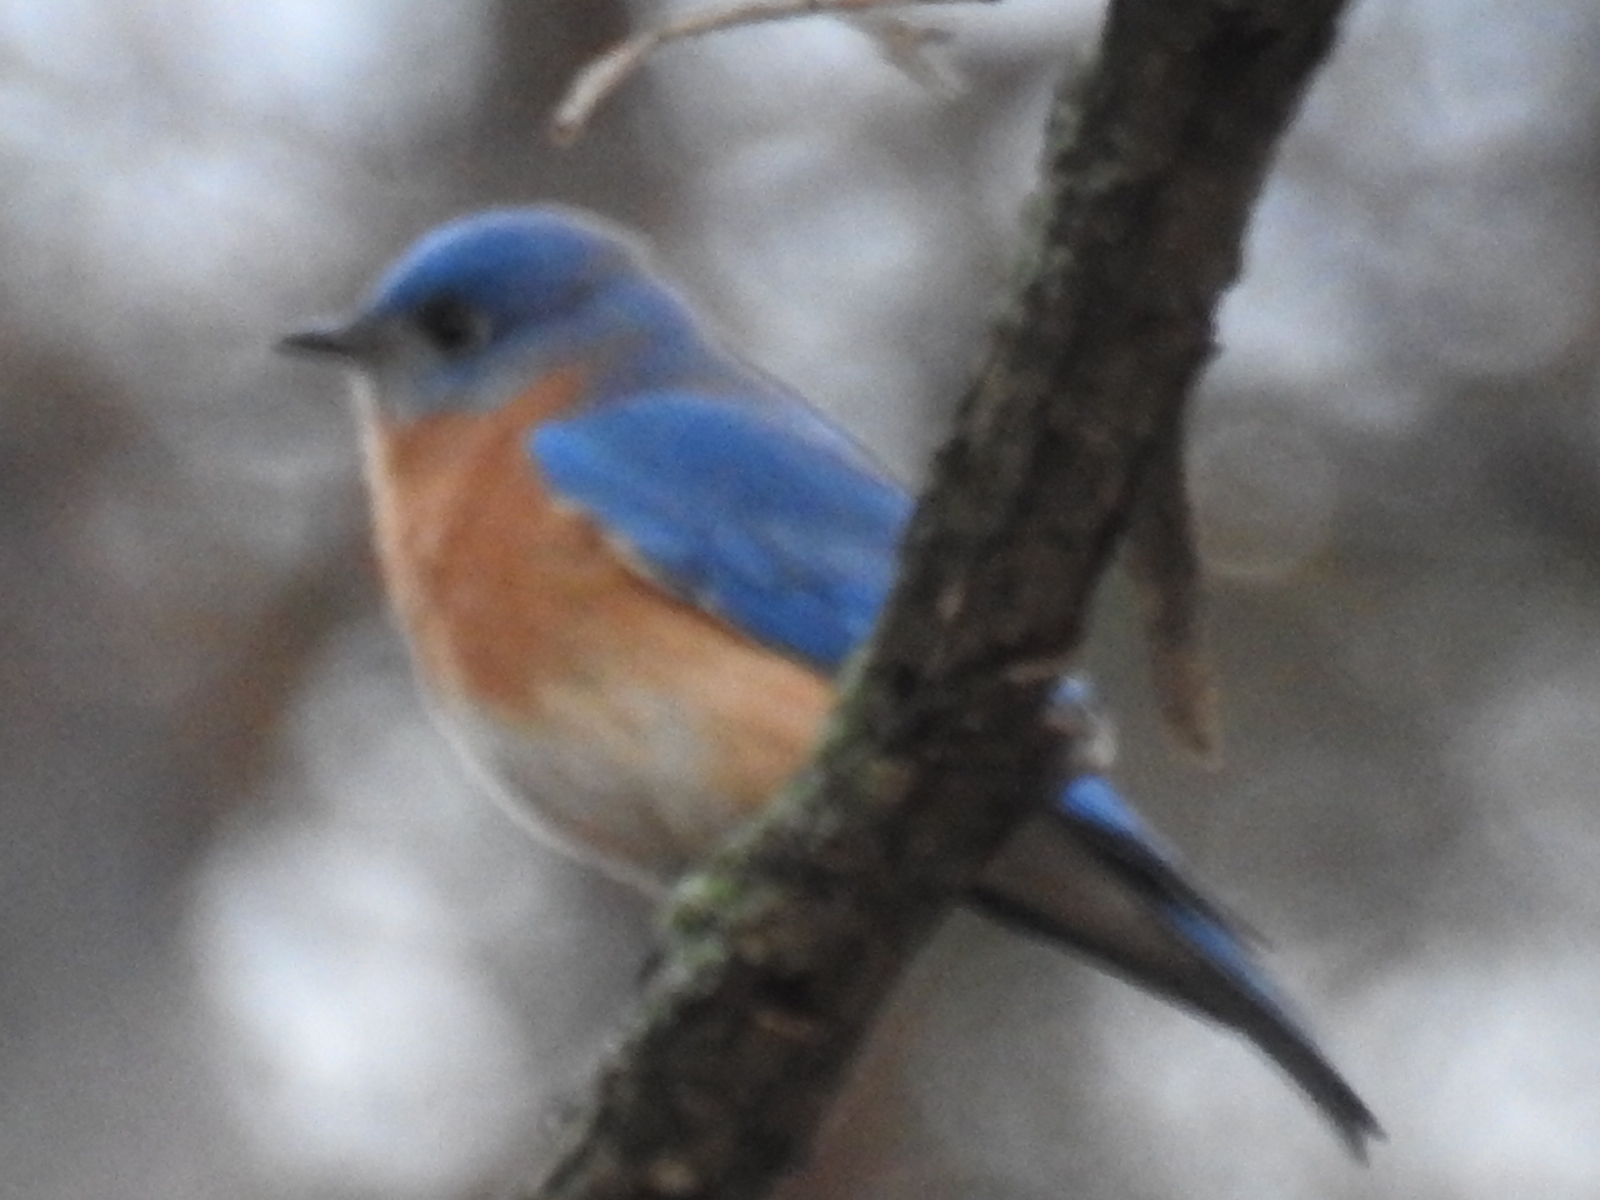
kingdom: Animalia
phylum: Chordata
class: Aves
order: Passeriformes
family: Turdidae
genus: Sialia
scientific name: Sialia sialis
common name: Eastern bluebird
